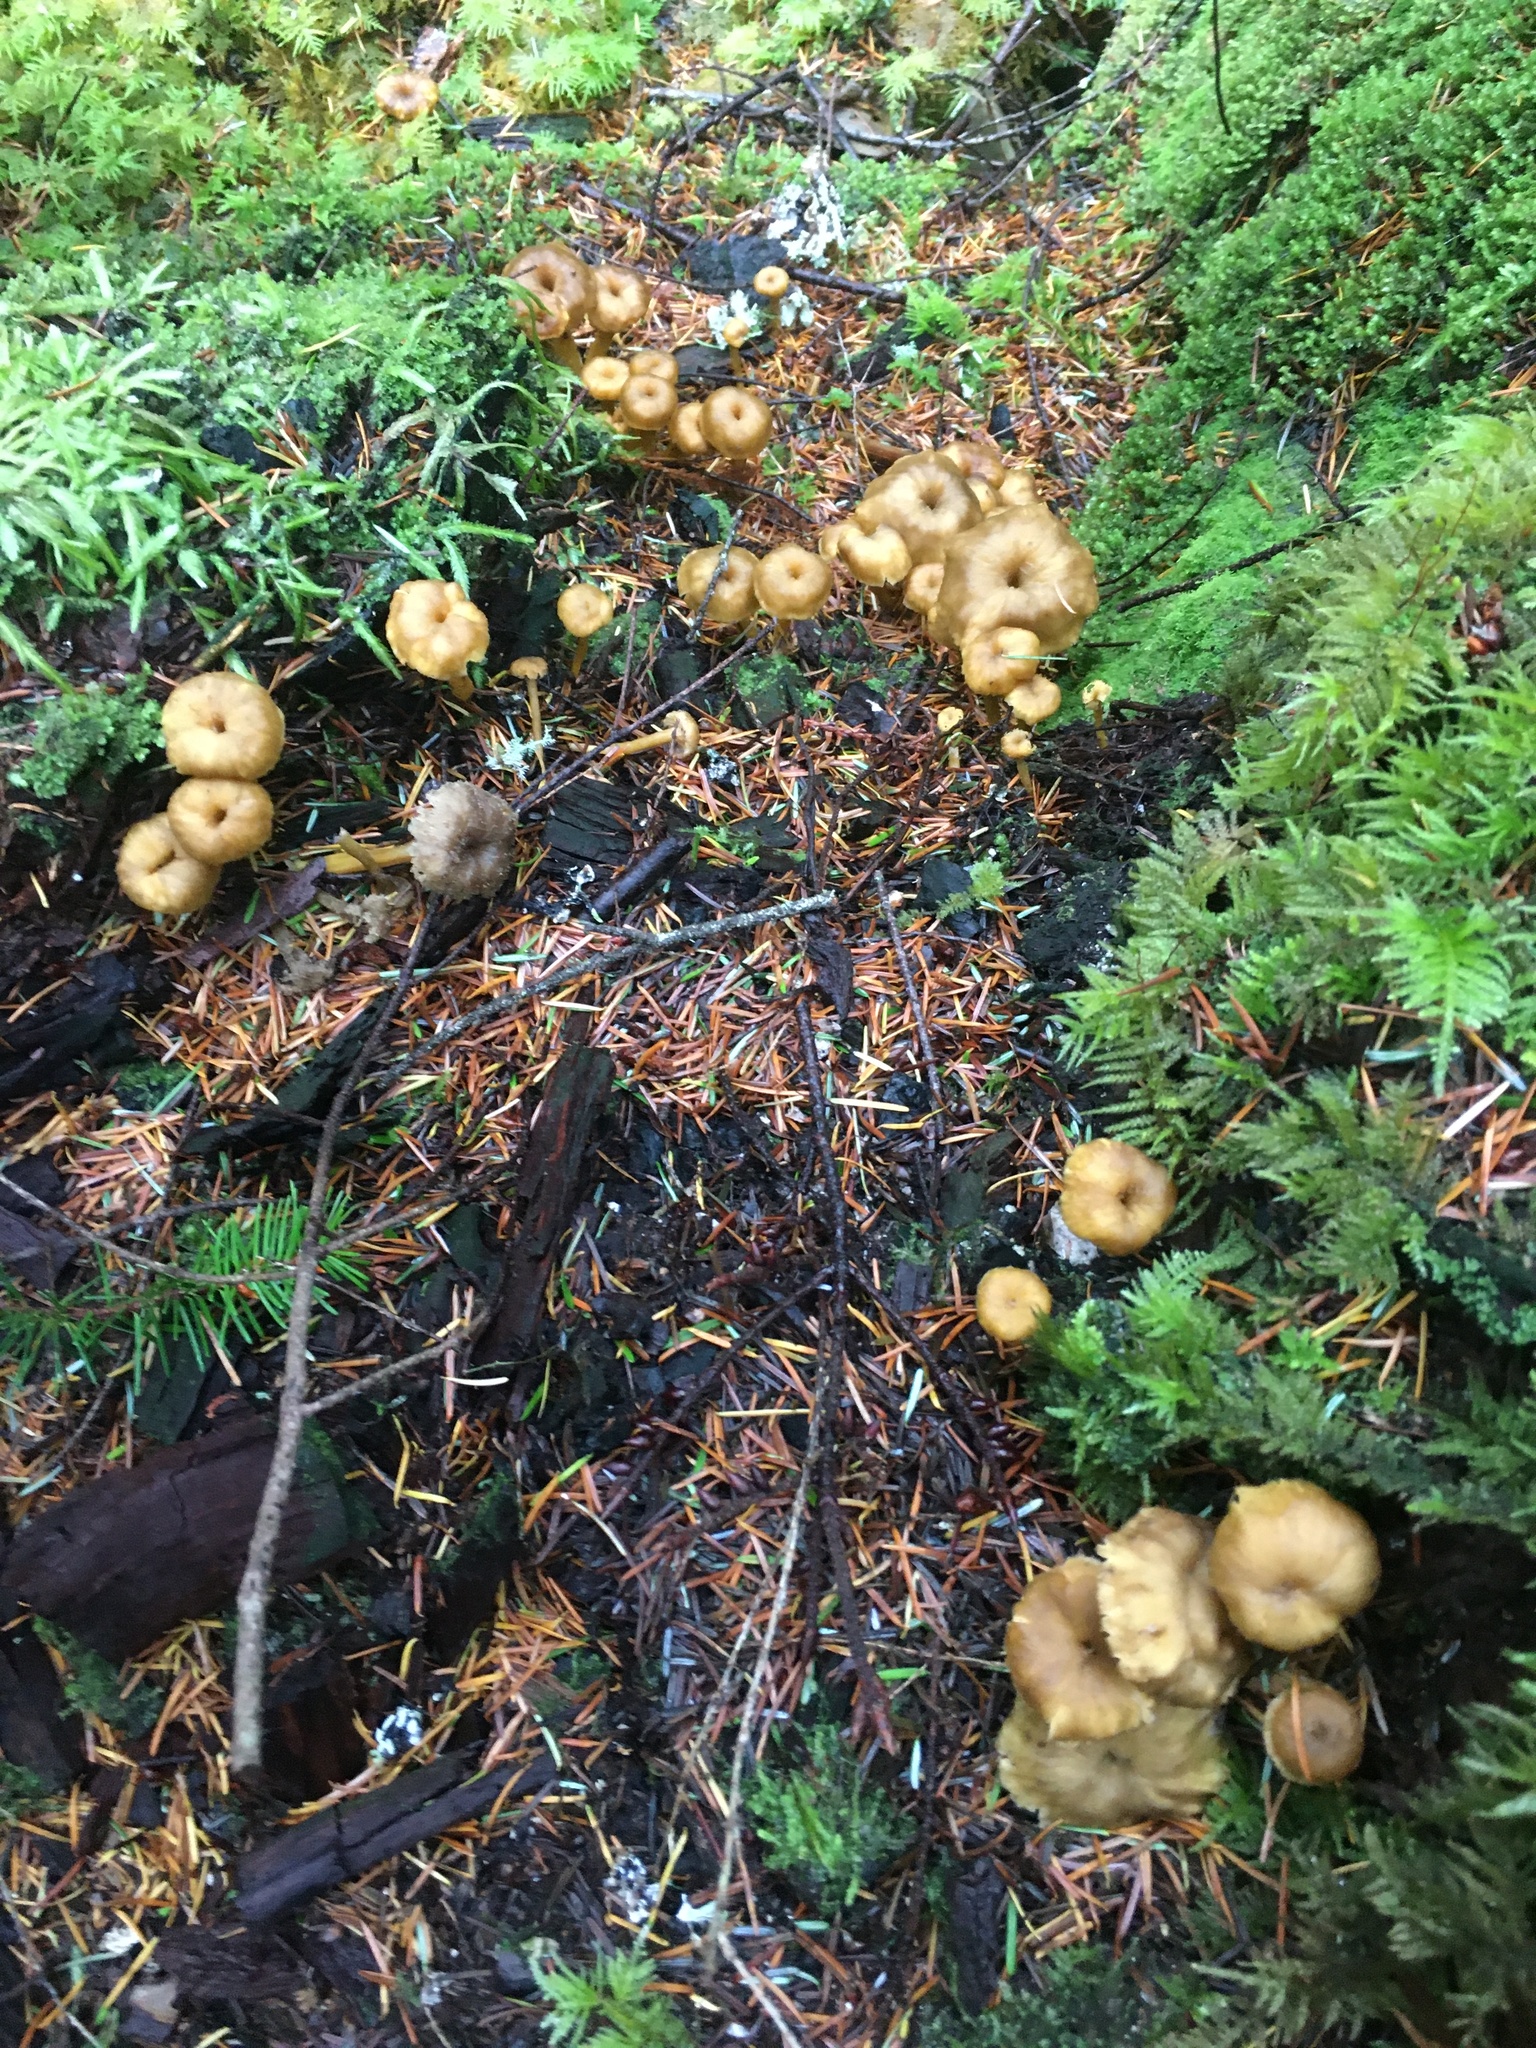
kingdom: Fungi
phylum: Basidiomycota
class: Agaricomycetes
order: Cantharellales
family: Hydnaceae
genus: Craterellus
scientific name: Craterellus tubaeformis
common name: Yellowfoot
